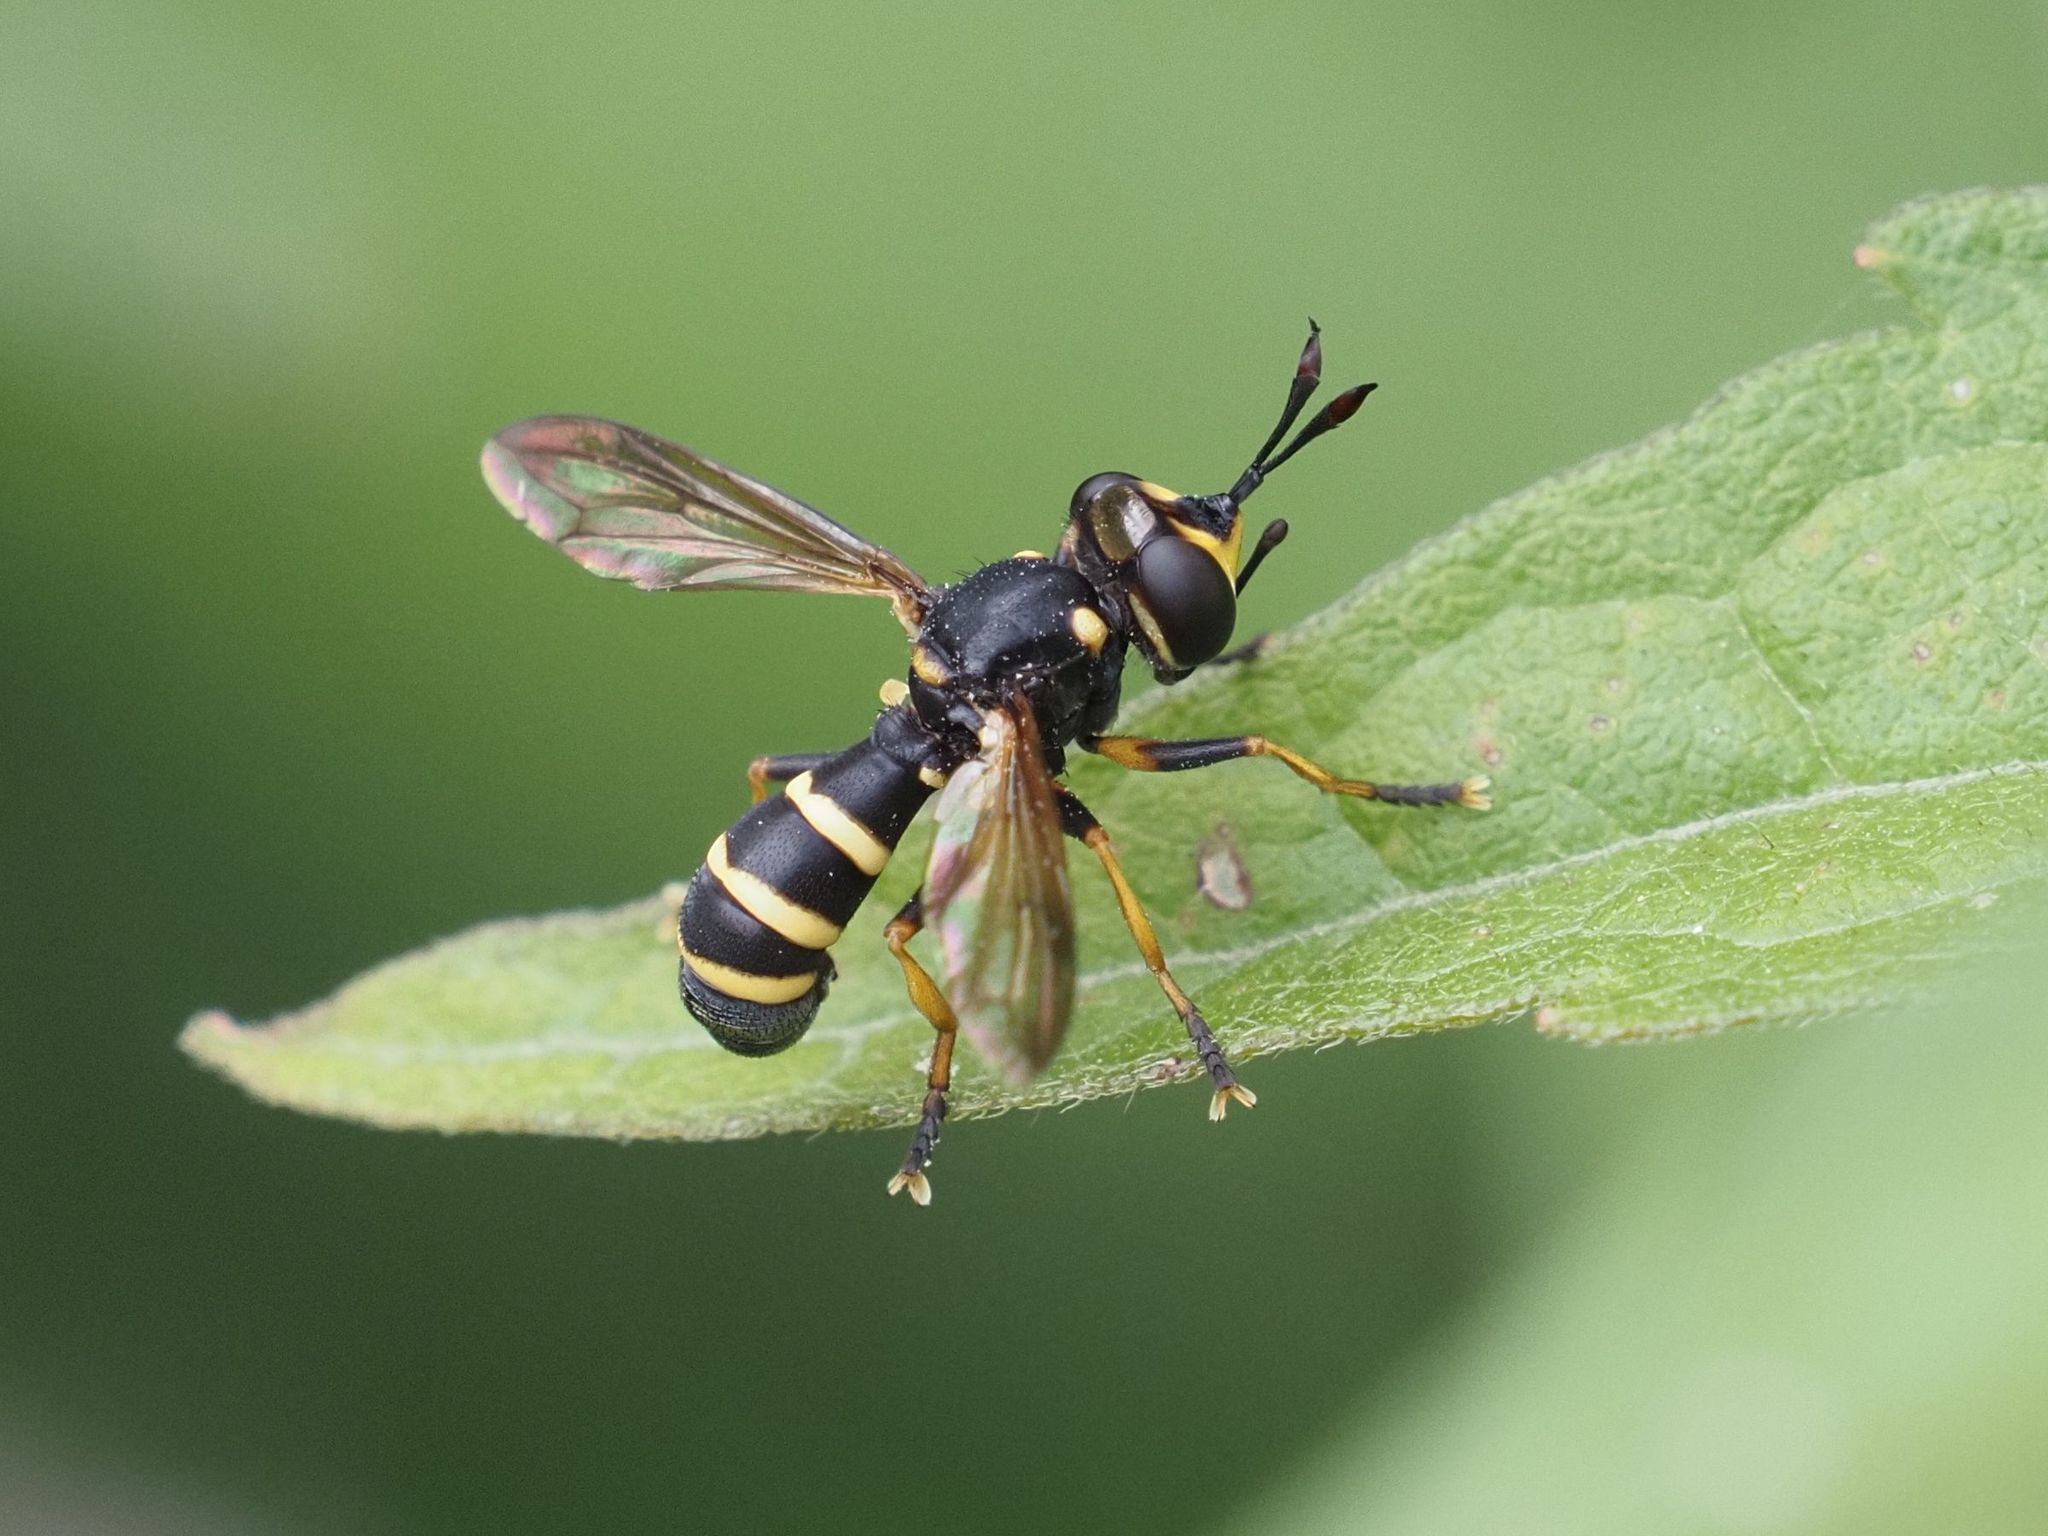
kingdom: Animalia
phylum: Arthropoda
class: Insecta
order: Diptera
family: Conopidae
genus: Conops
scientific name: Conops flavipes
